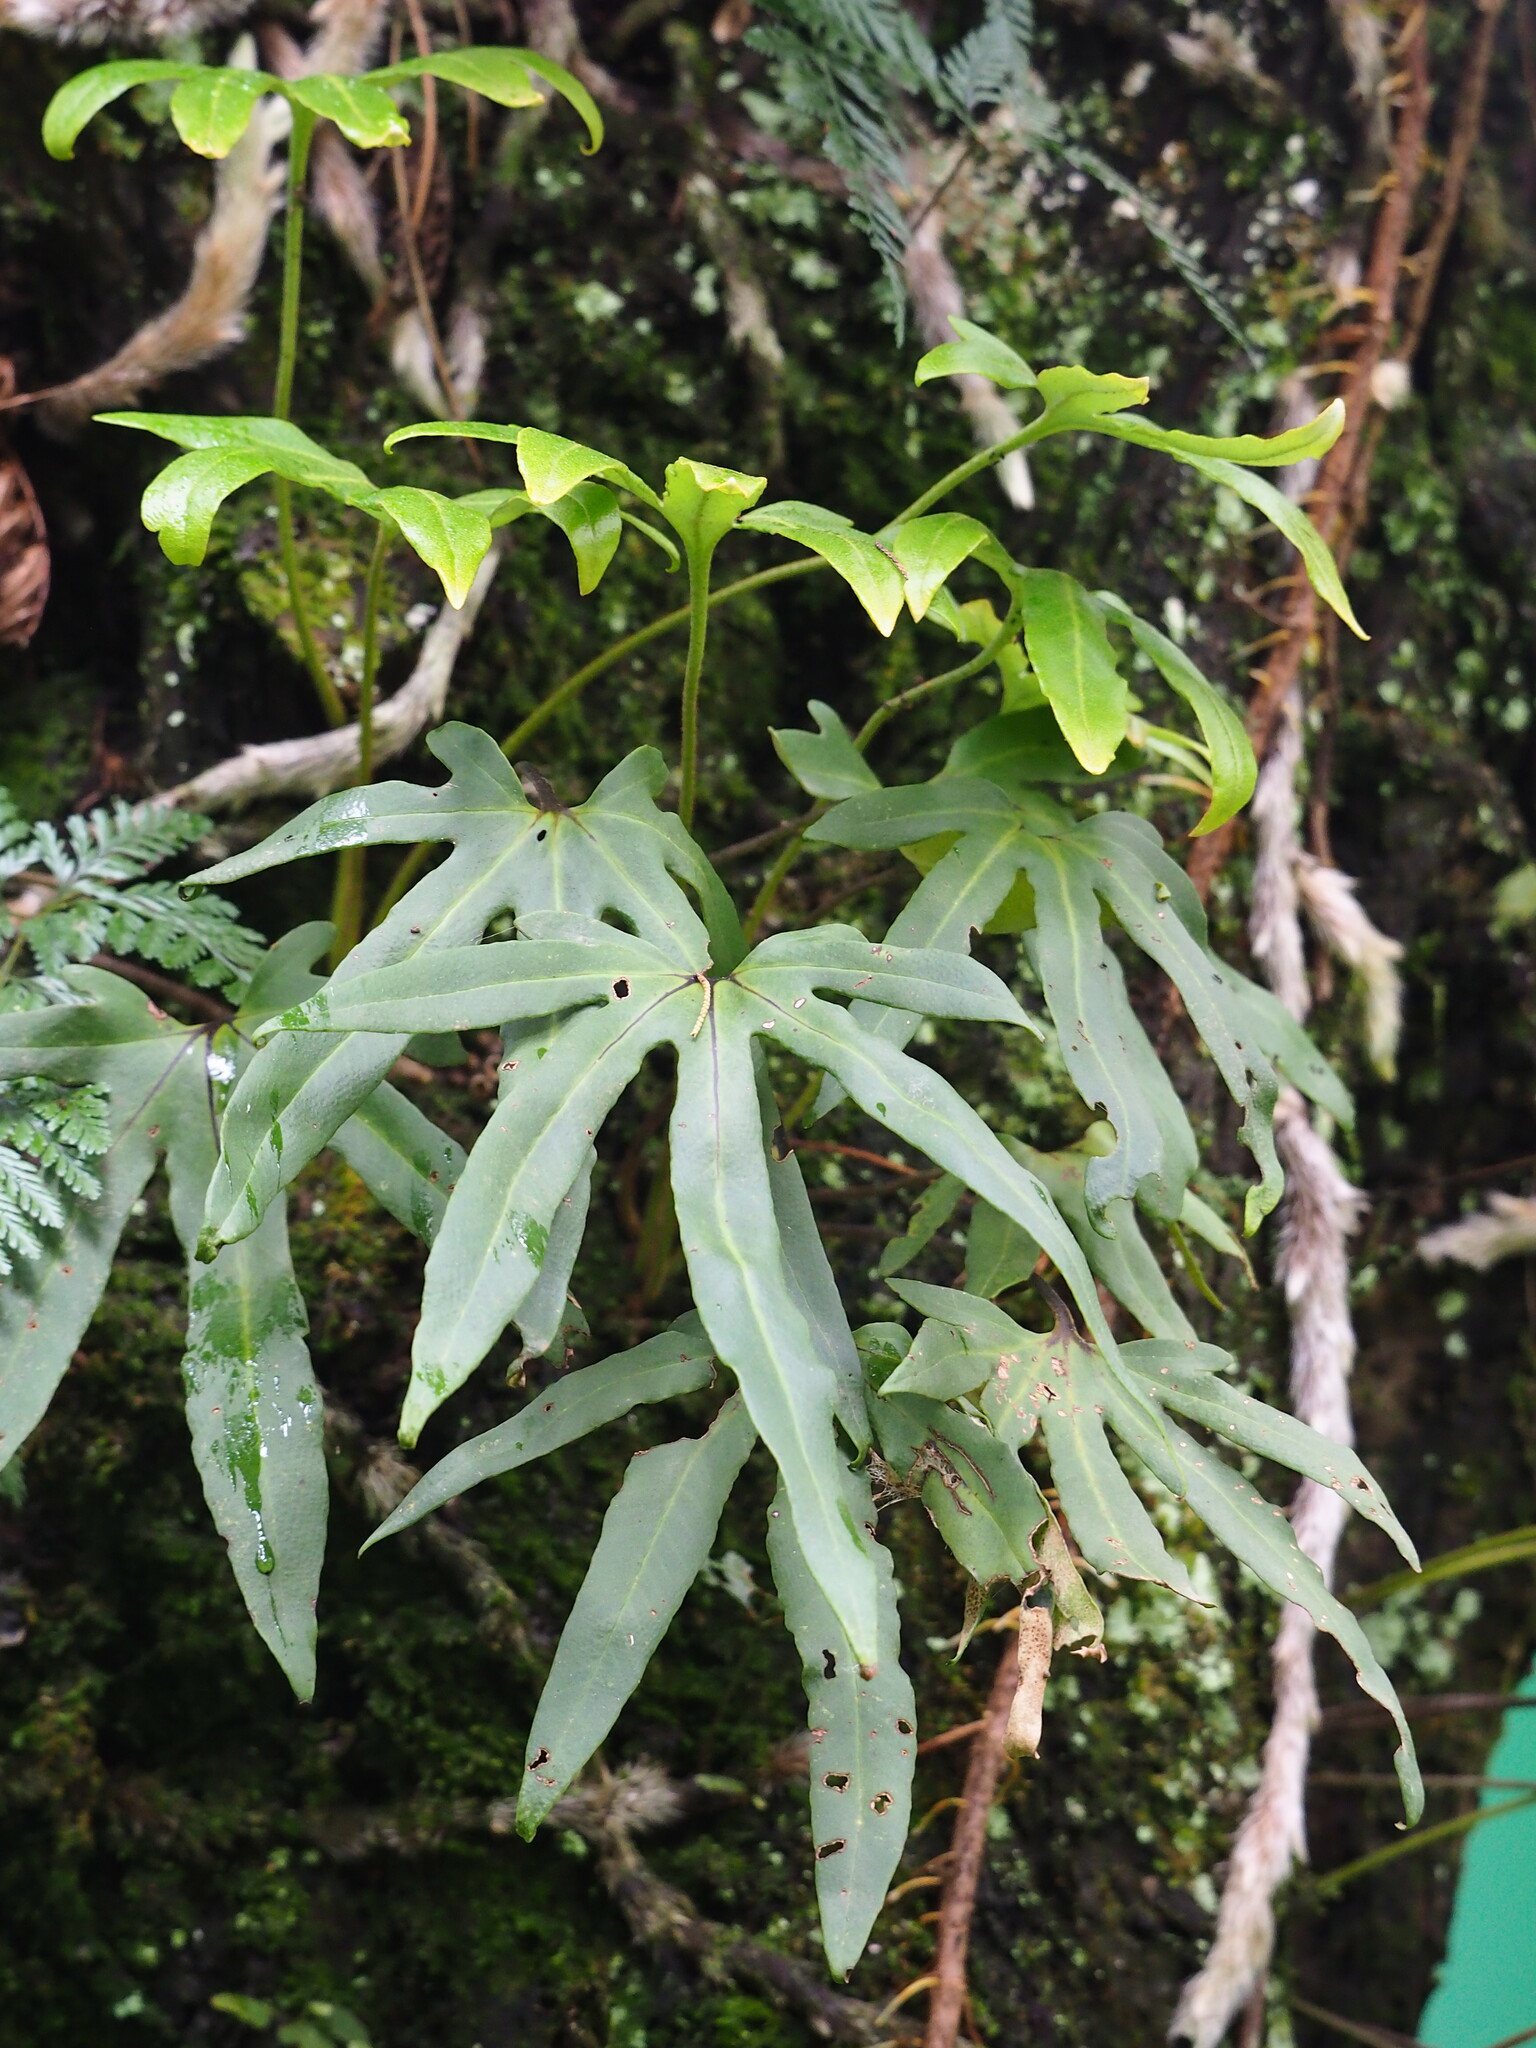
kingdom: Plantae
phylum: Tracheophyta
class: Polypodiopsida
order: Polypodiales
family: Polypodiaceae
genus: Pyrrosia
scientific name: Pyrrosia polydactyla
